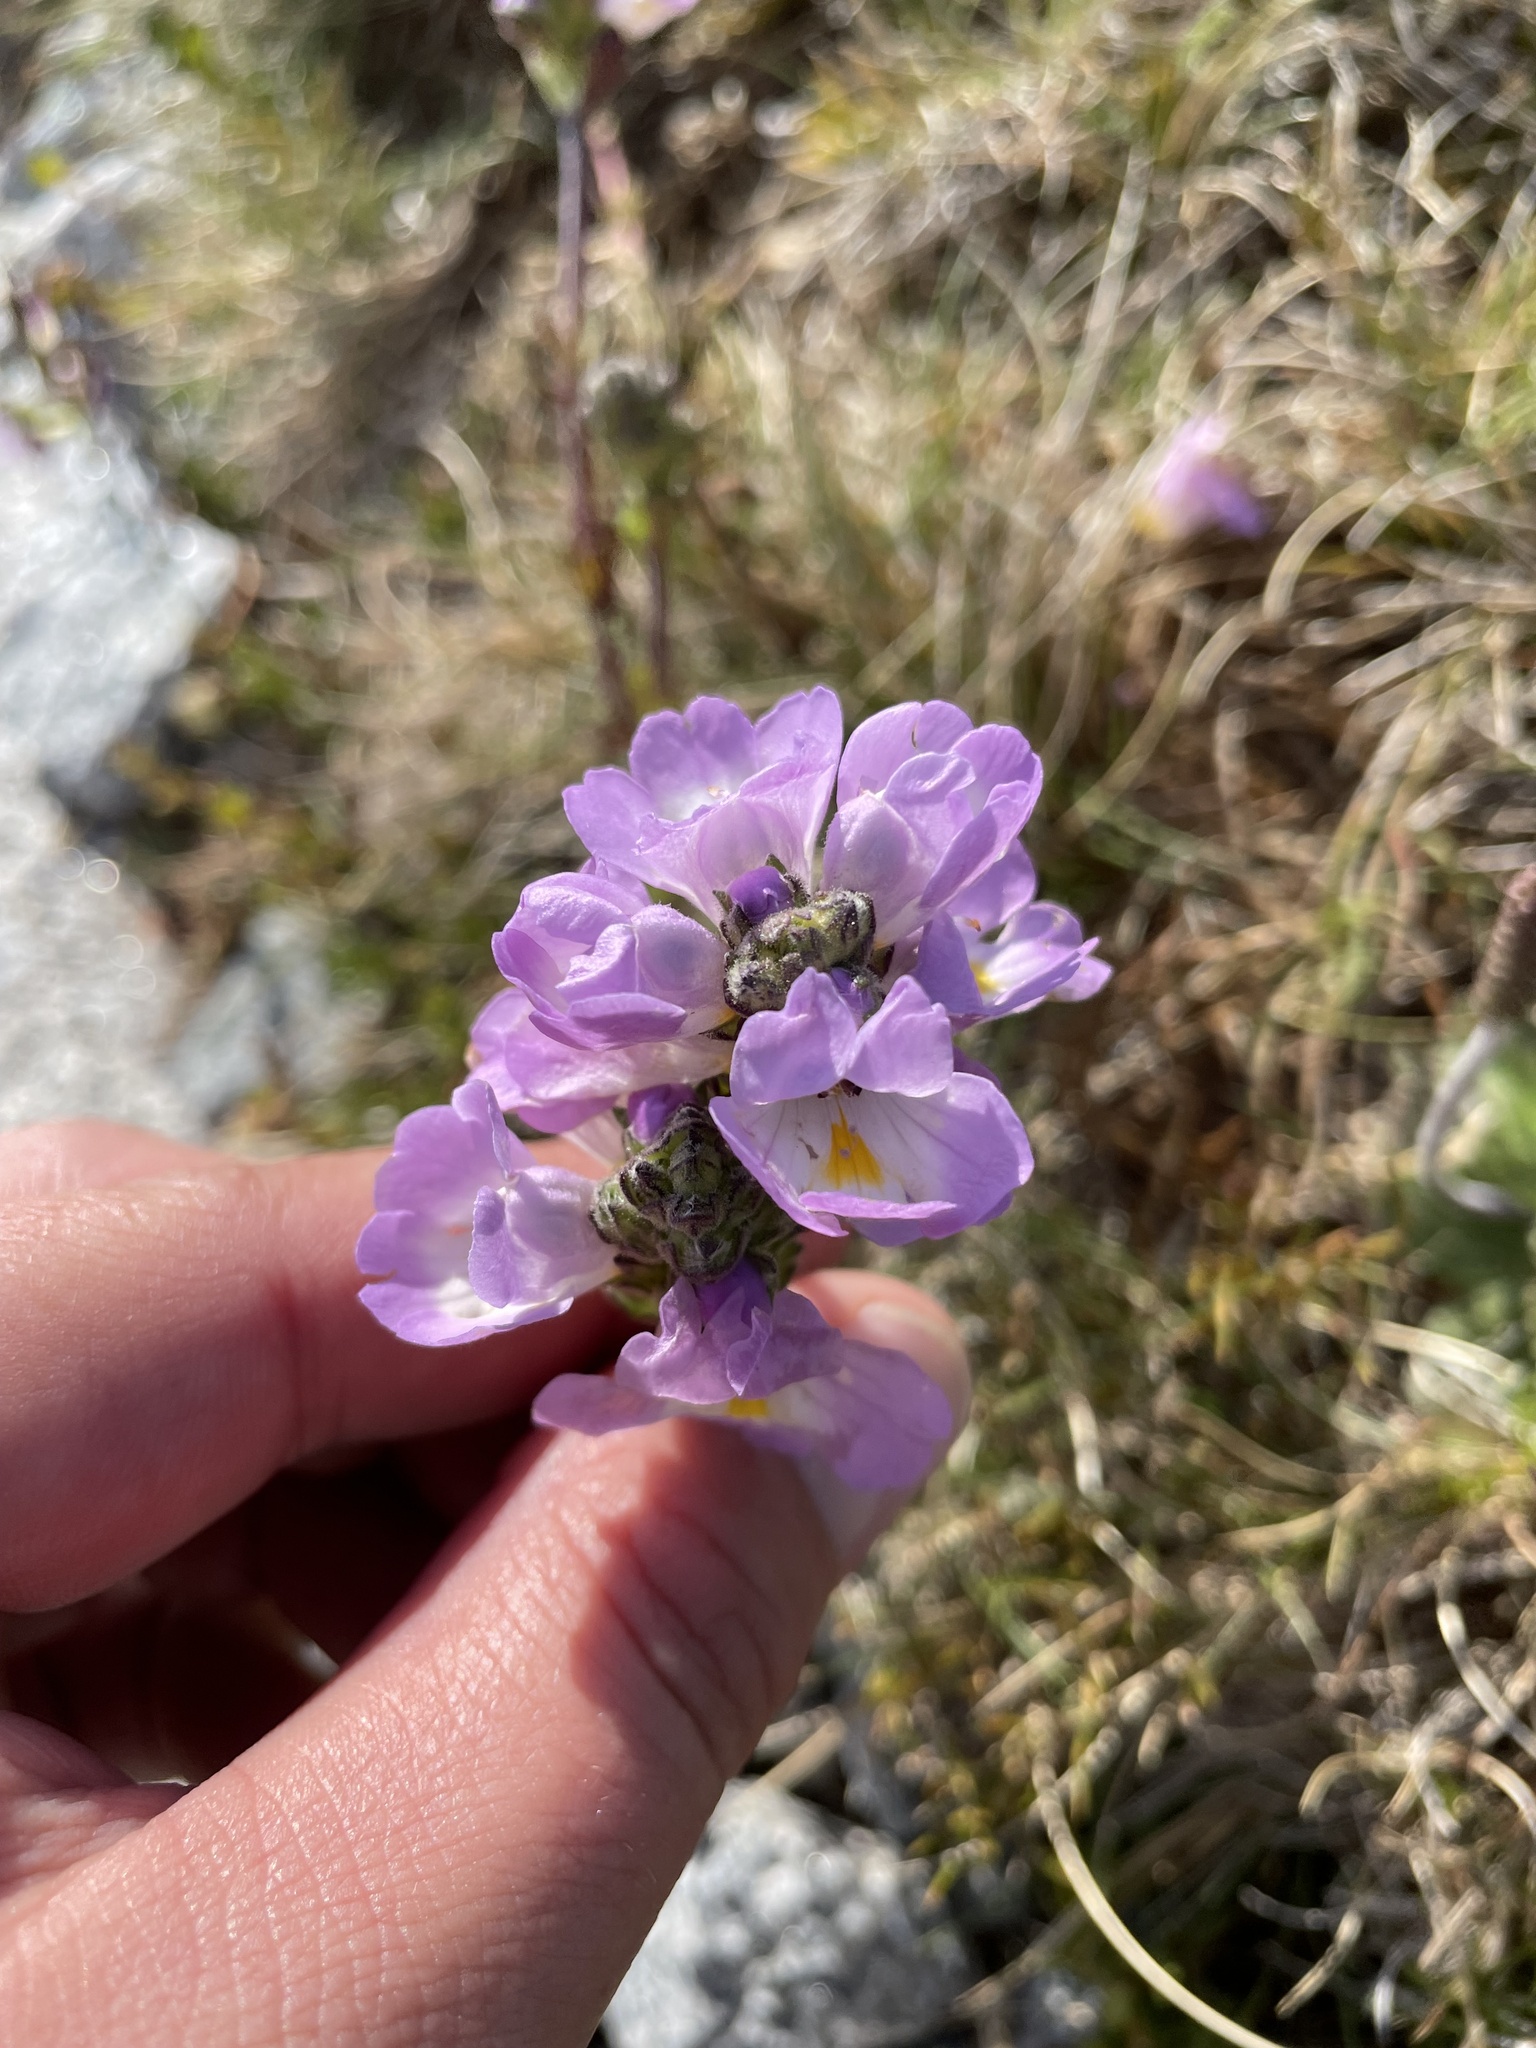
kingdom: Plantae
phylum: Tracheophyta
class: Magnoliopsida
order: Lamiales
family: Orobanchaceae
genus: Euphrasia
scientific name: Euphrasia collina
